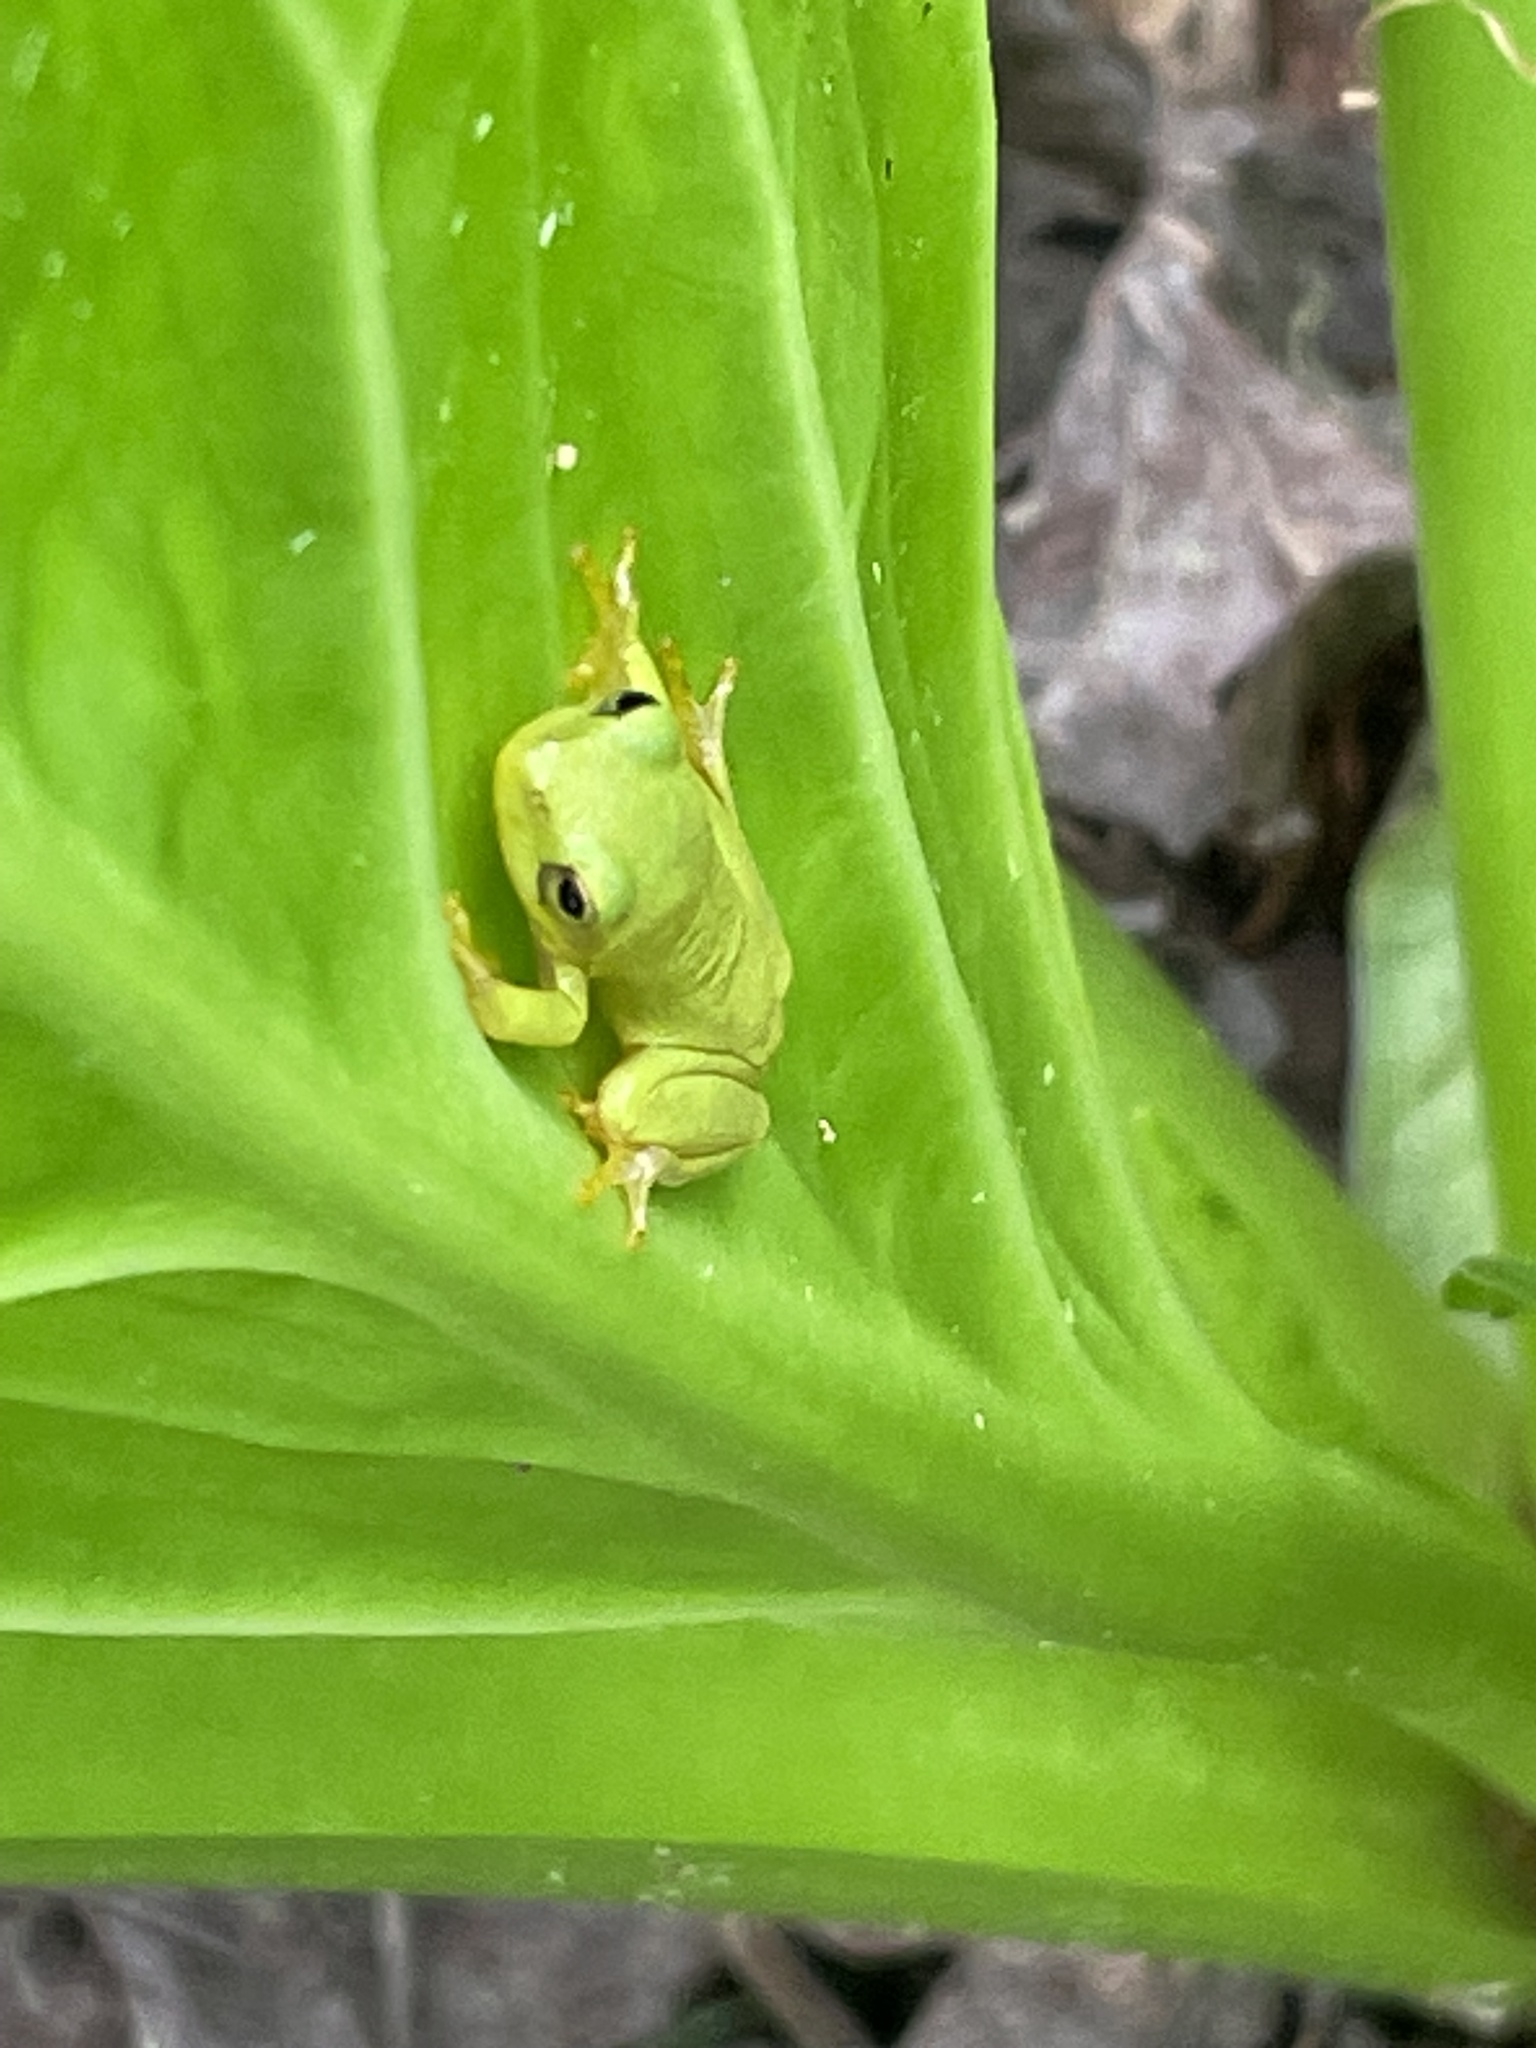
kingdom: Animalia
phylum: Chordata
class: Amphibia
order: Anura
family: Hylidae
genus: Dryophytes
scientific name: Dryophytes squirellus
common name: Squirrel treefrog
